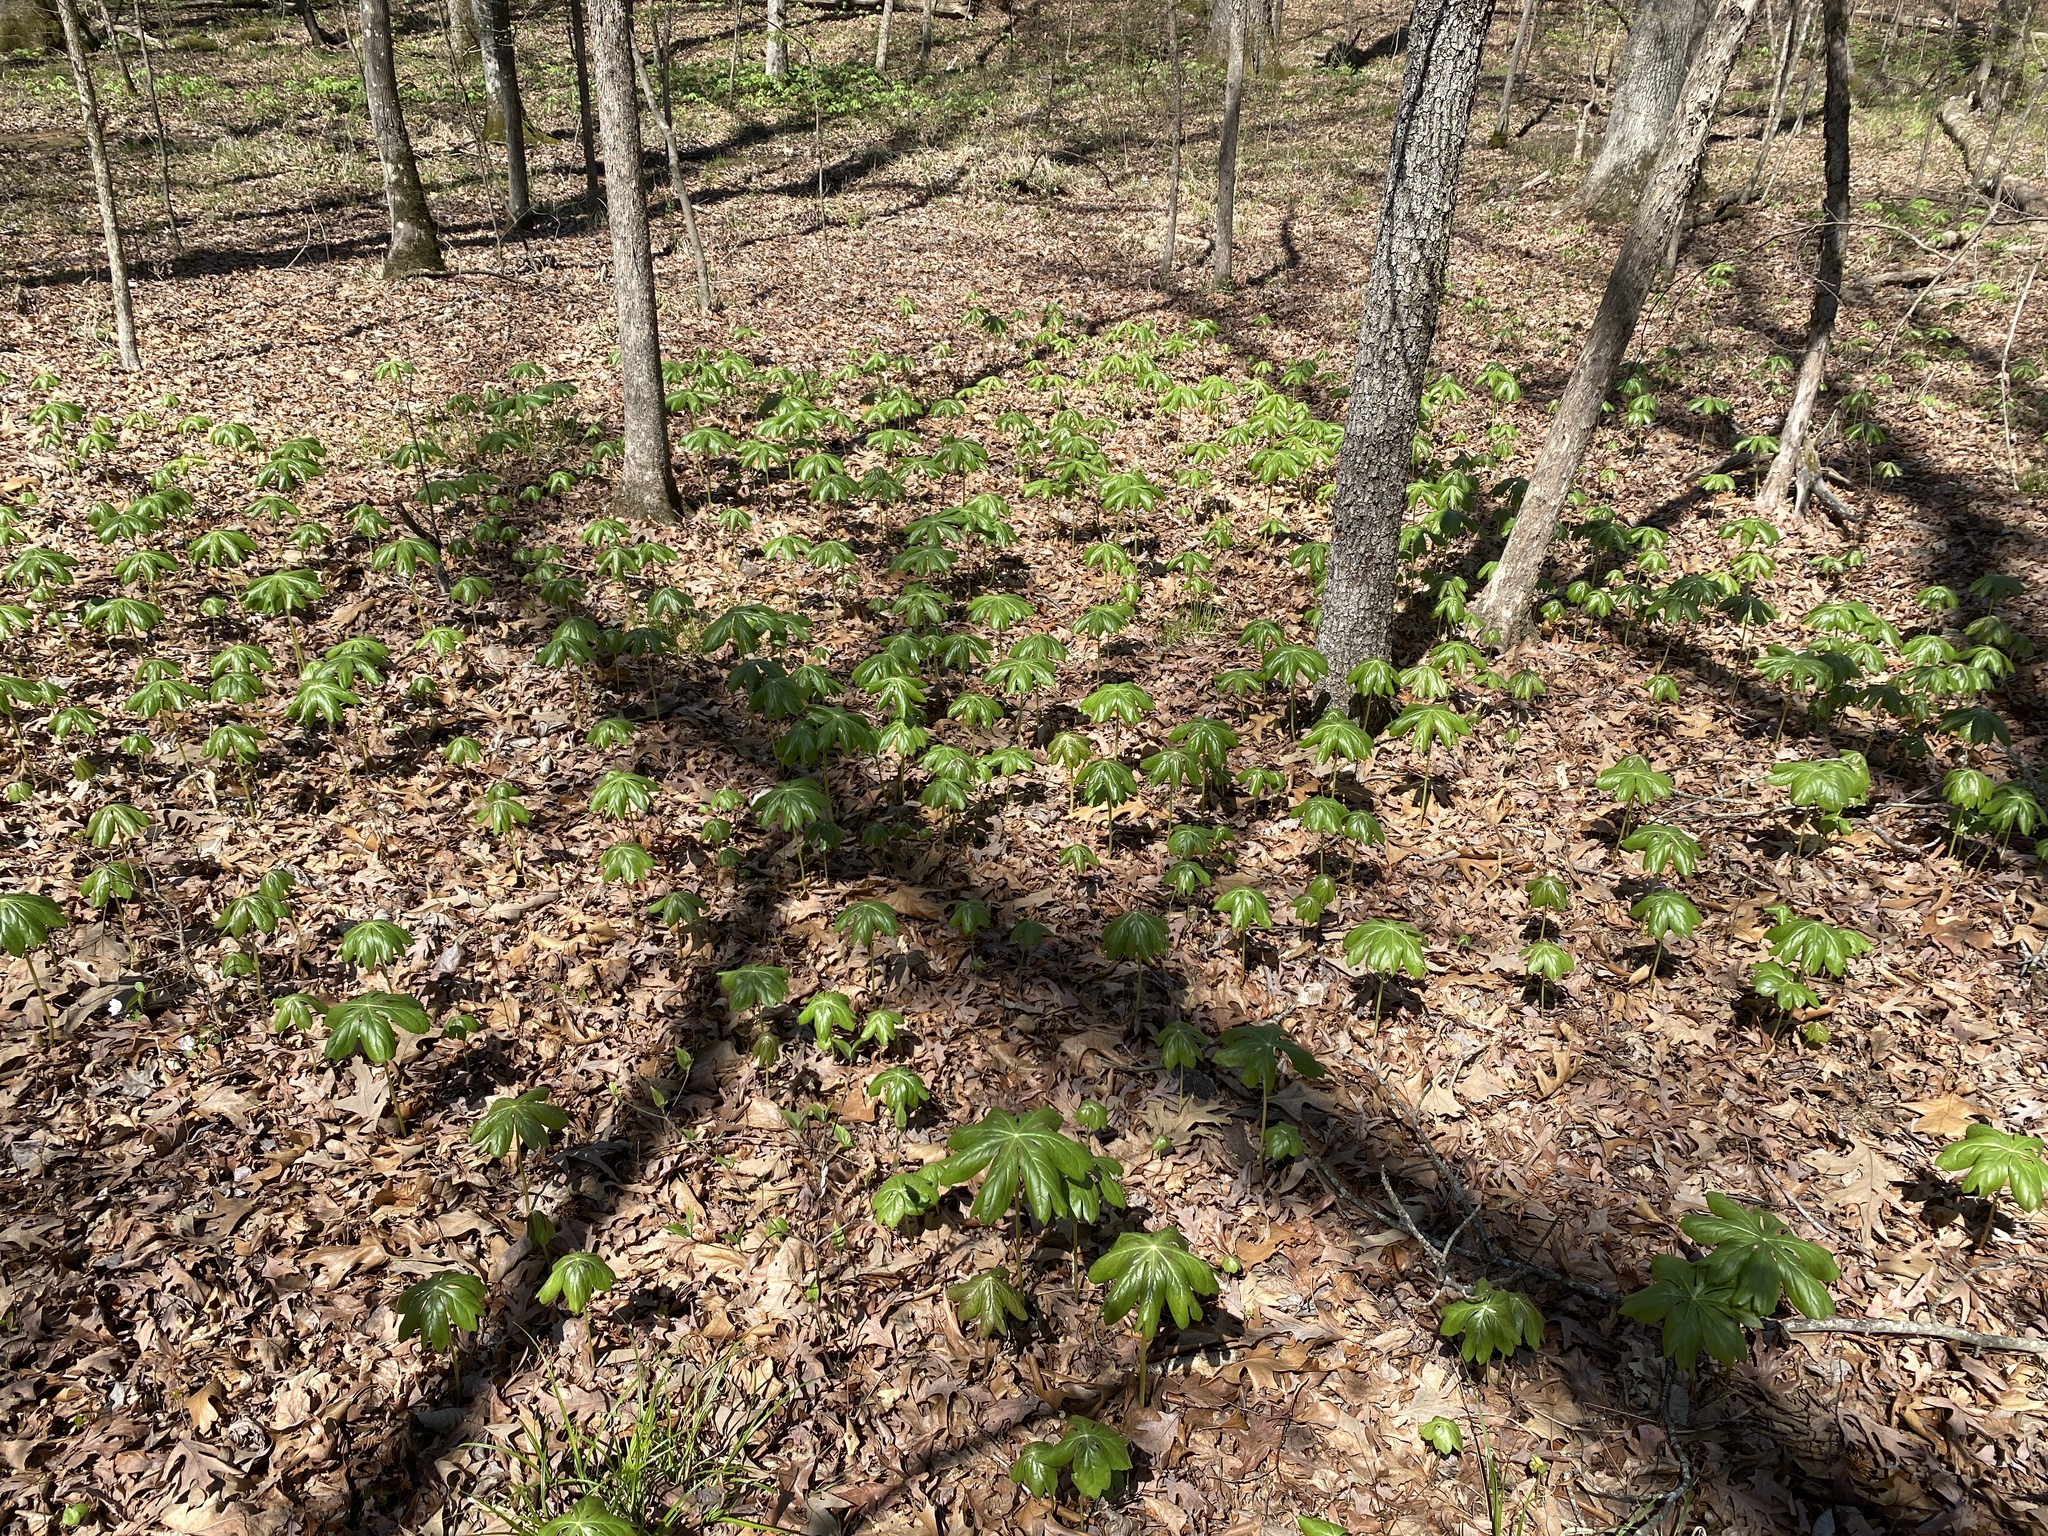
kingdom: Plantae
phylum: Tracheophyta
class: Magnoliopsida
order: Ranunculales
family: Berberidaceae
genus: Podophyllum
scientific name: Podophyllum peltatum
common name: Wild mandrake
